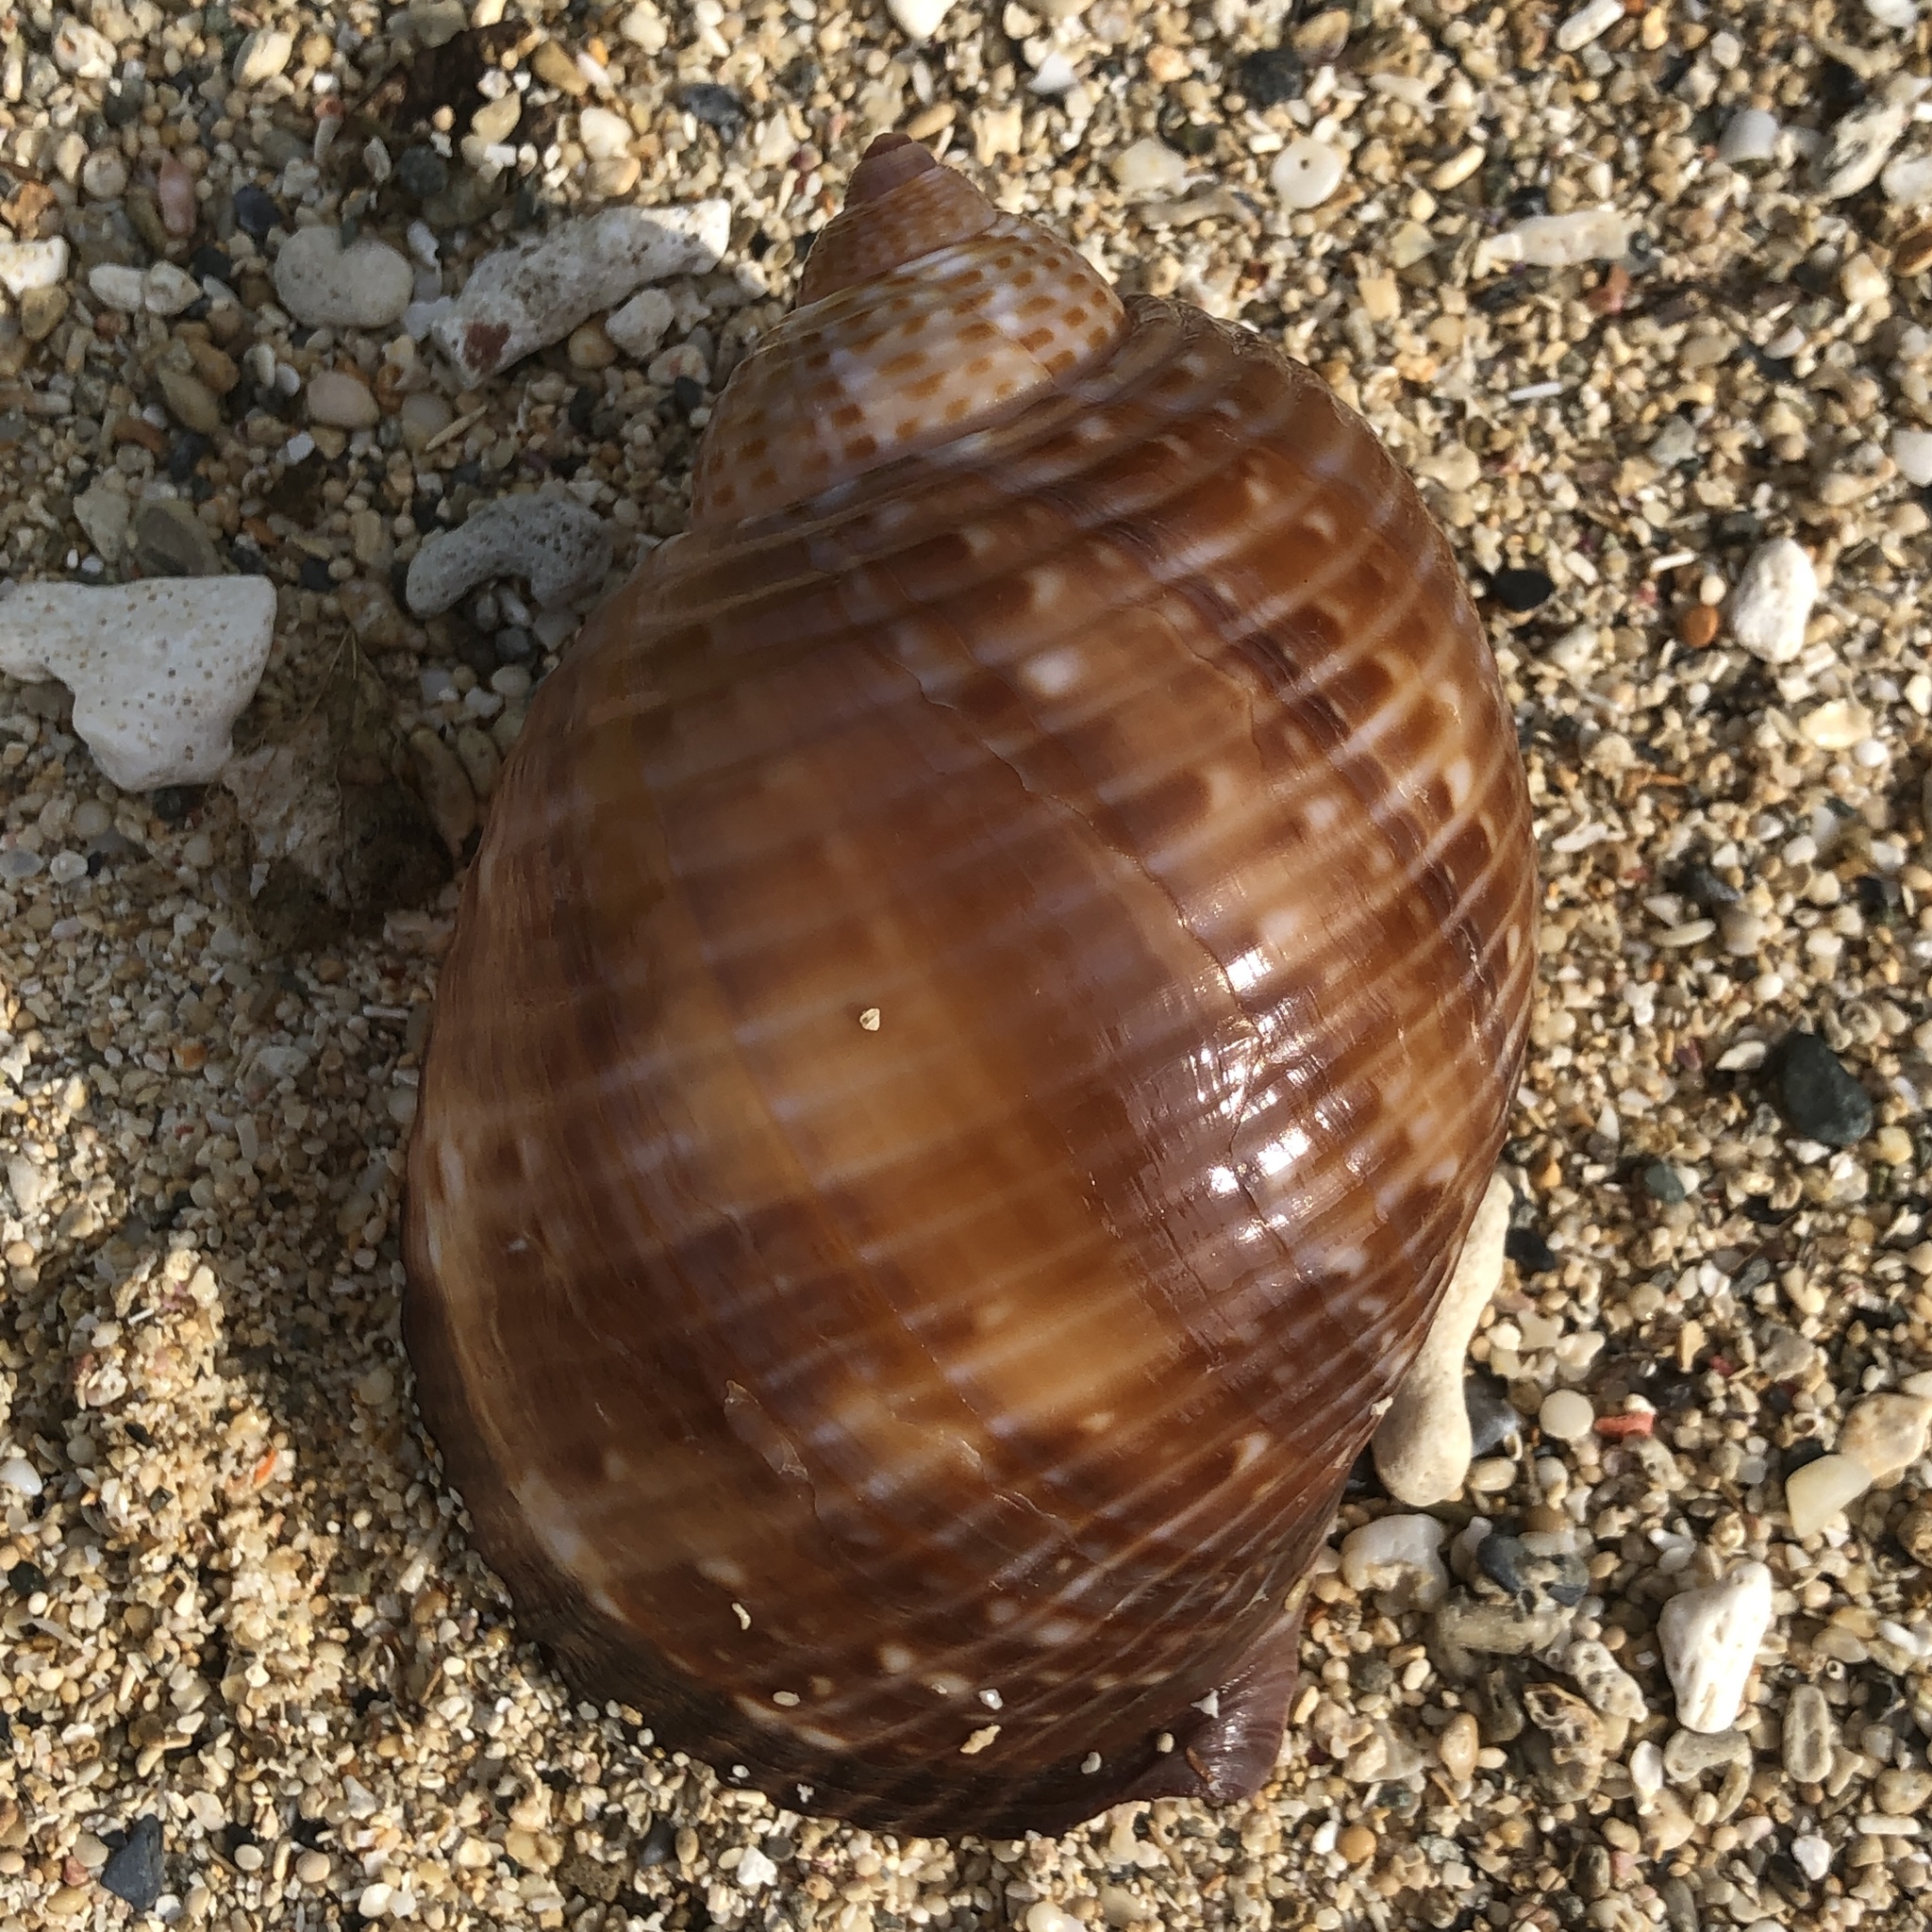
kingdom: Animalia
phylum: Mollusca
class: Gastropoda
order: Littorinimorpha
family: Tonnidae
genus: Tonna
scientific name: Tonna perdix
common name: Pacific partridge tun
